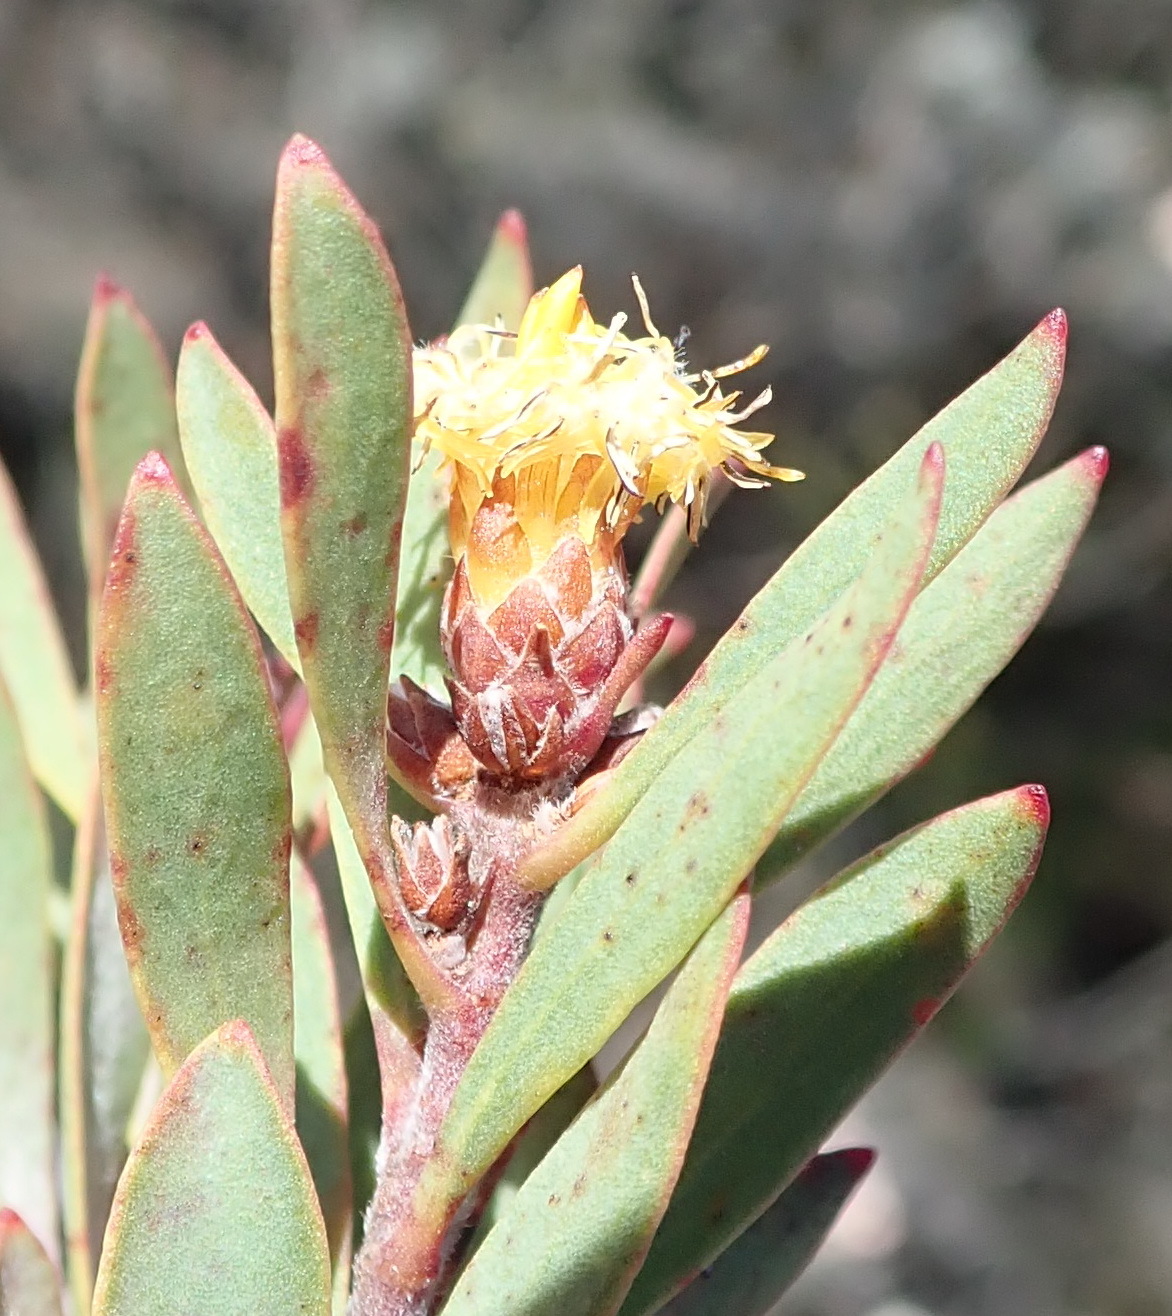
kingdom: Plantae
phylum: Tracheophyta
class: Magnoliopsida
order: Proteales
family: Proteaceae
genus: Leucadendron
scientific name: Leucadendron rubrum
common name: Spinning top
